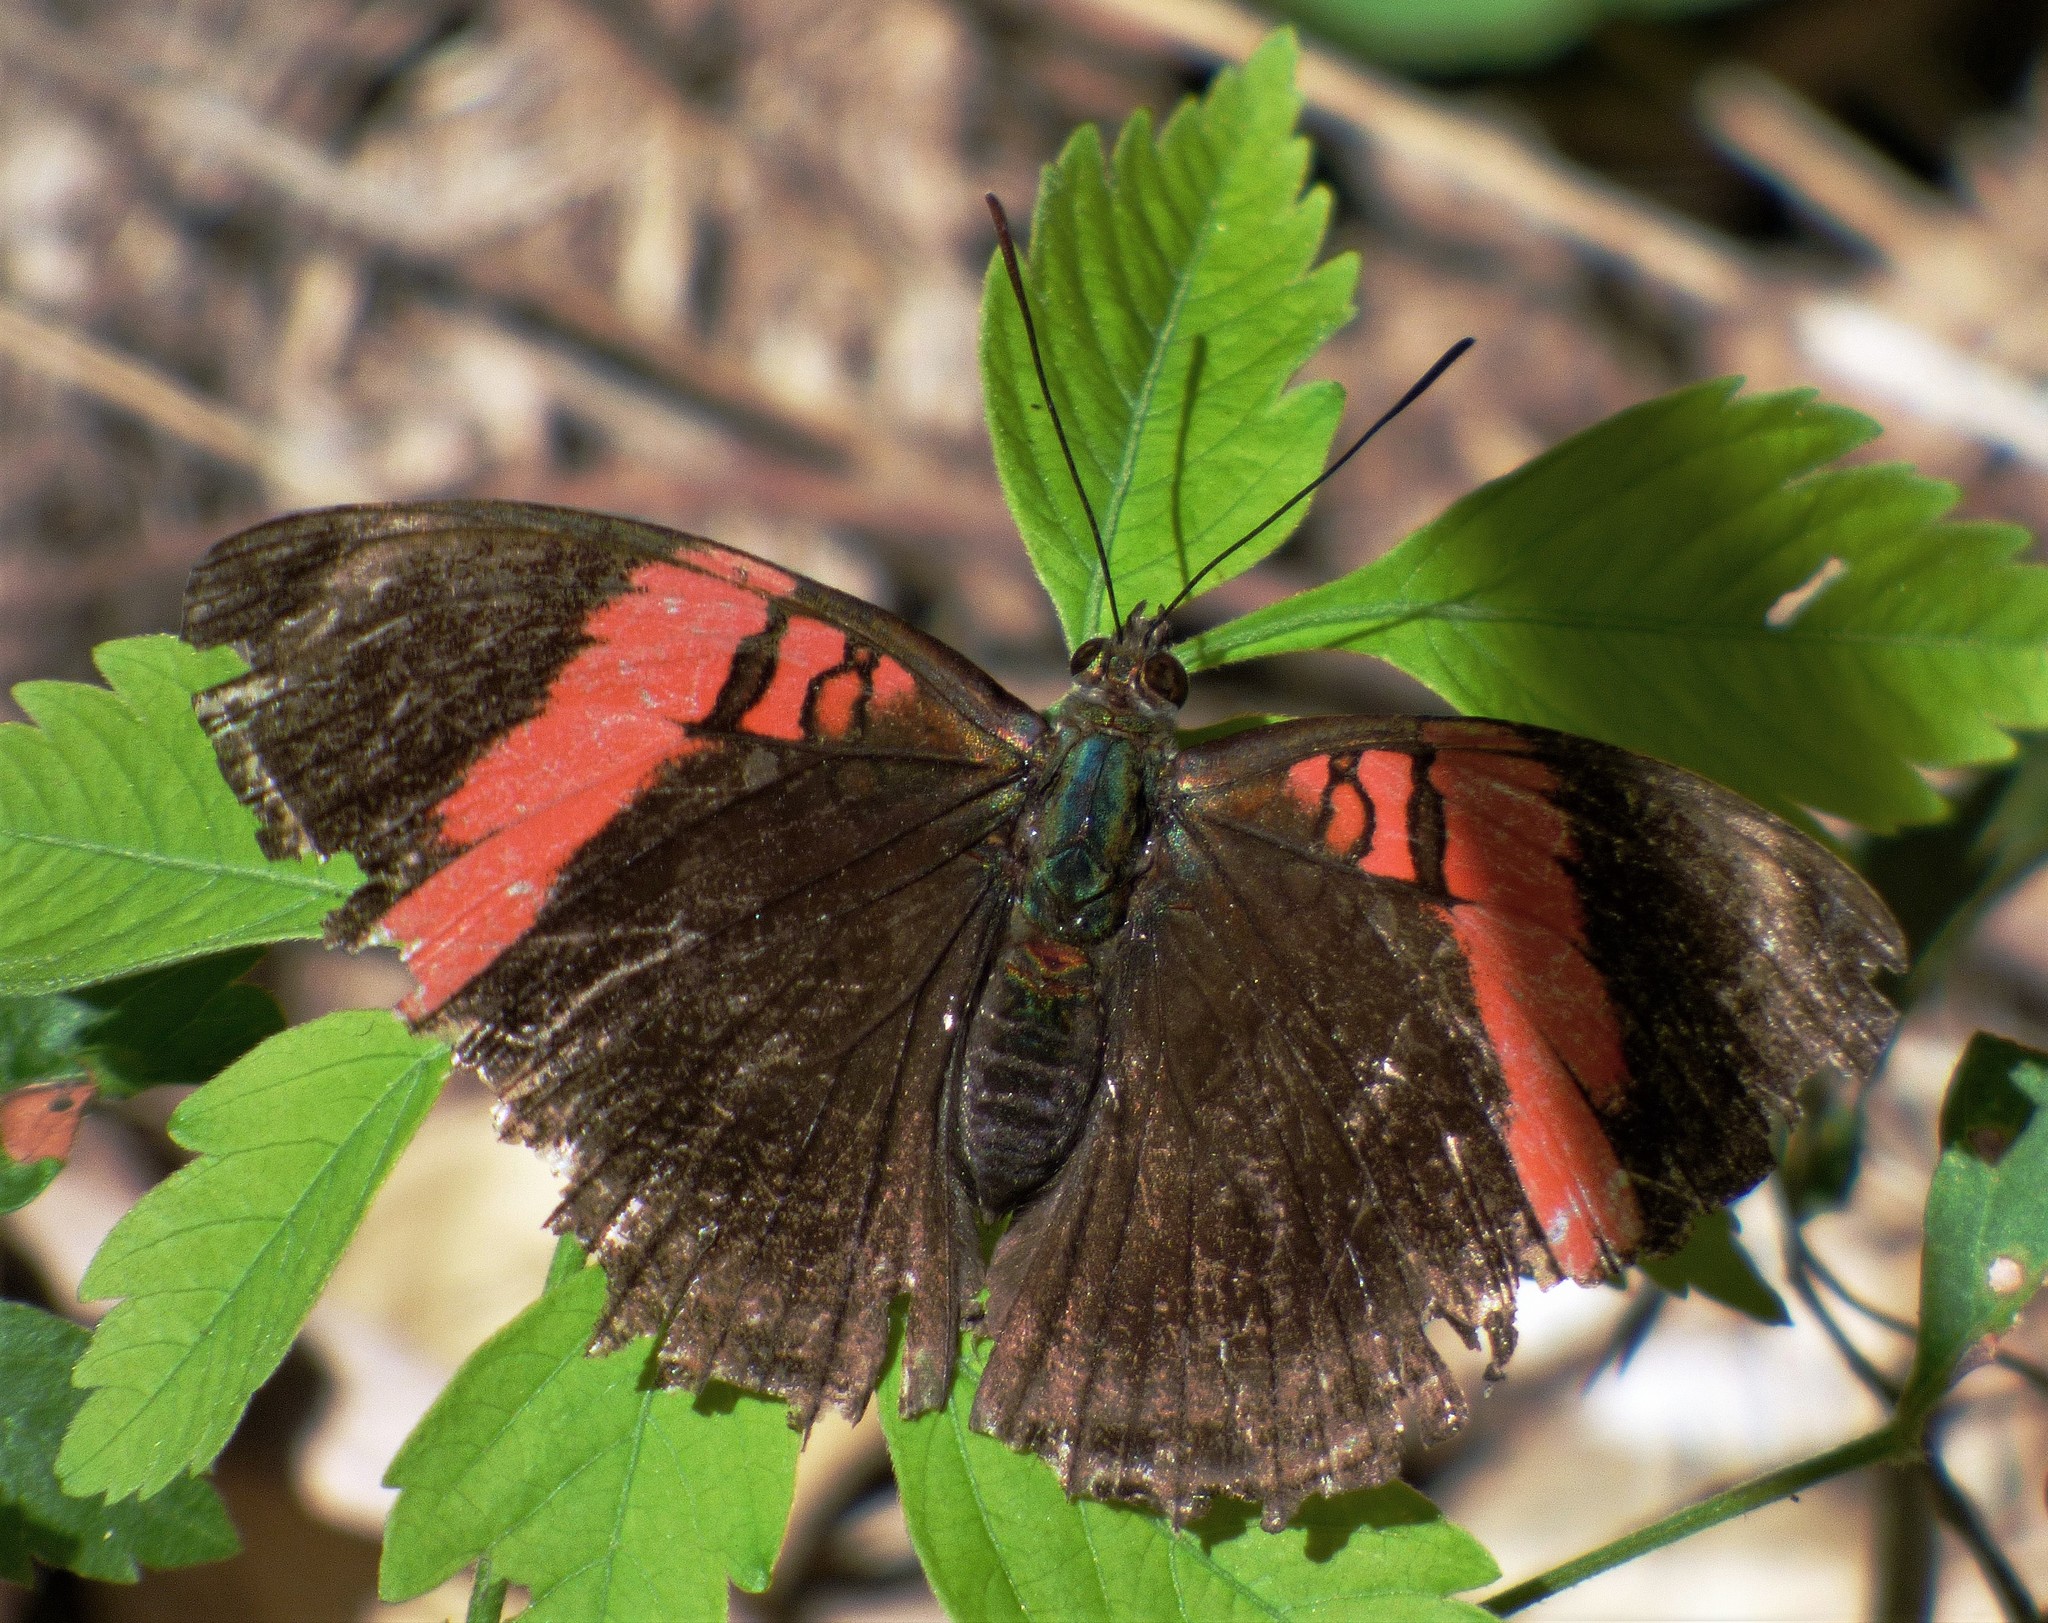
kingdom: Animalia
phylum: Arthropoda
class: Insecta
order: Lepidoptera
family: Nymphalidae
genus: Limenitis
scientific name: Limenitis isis
